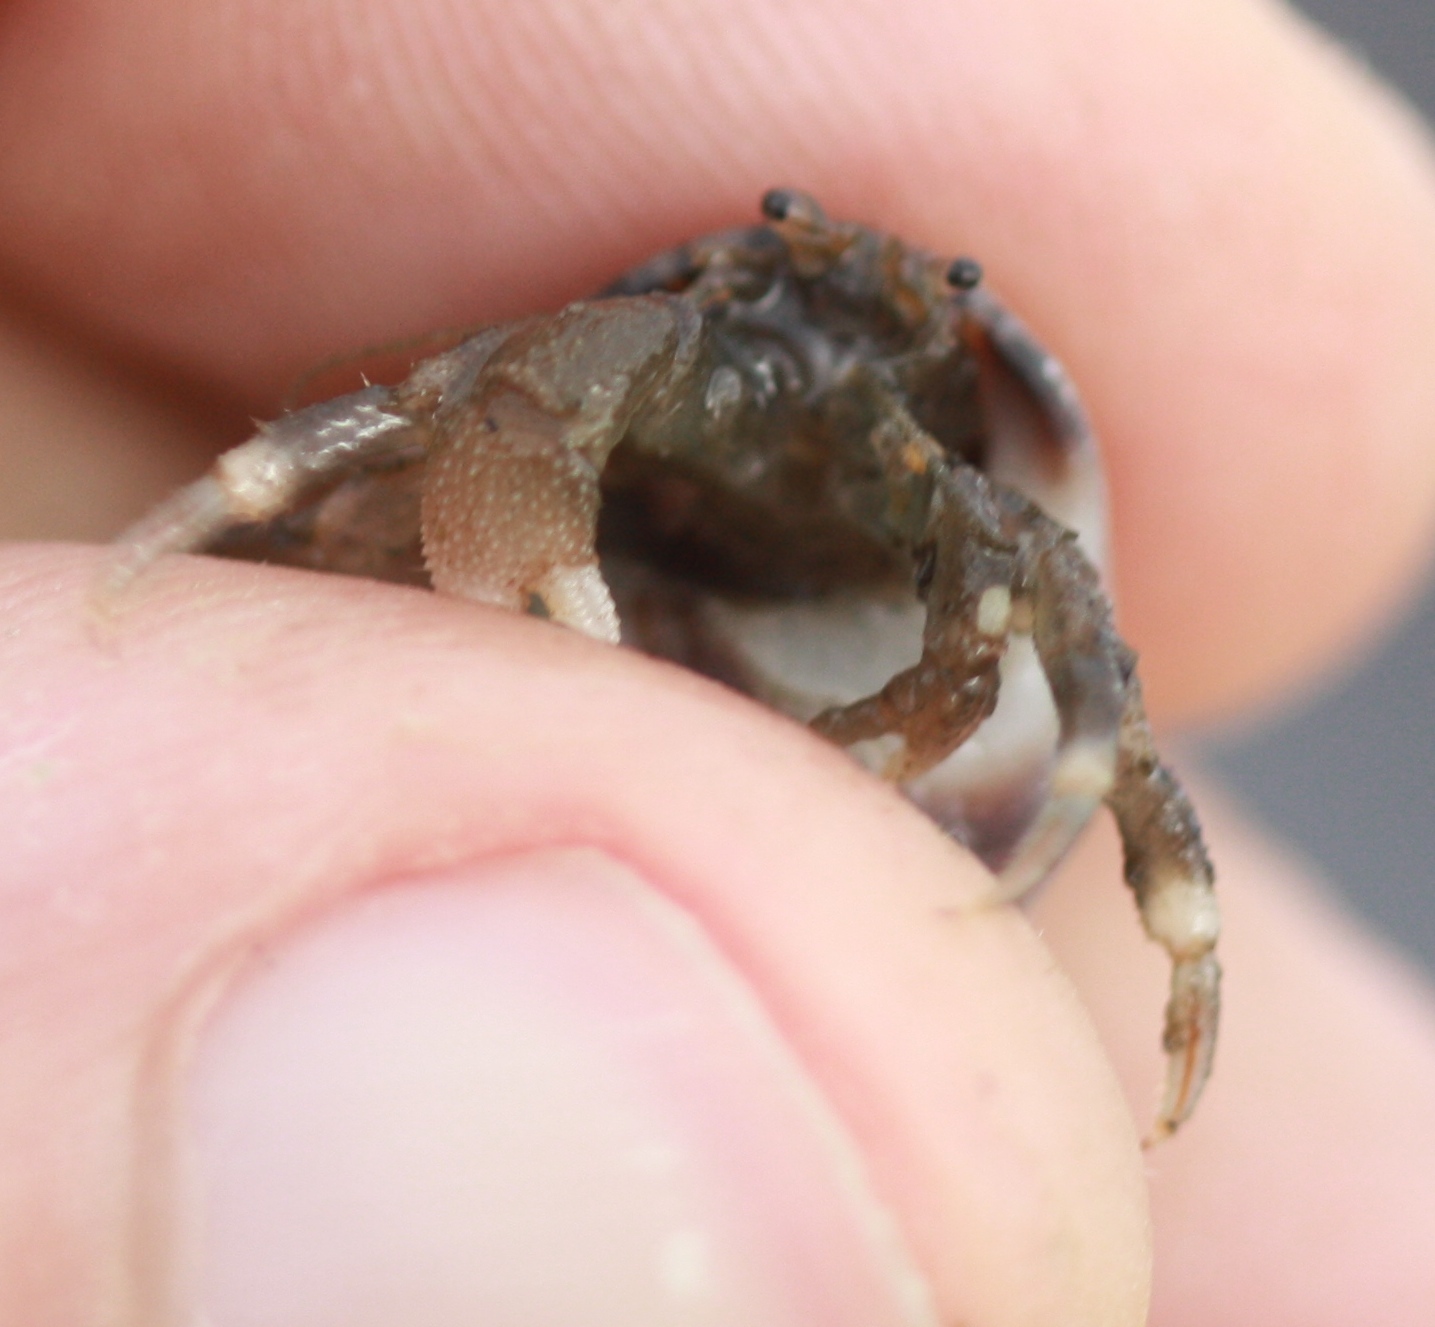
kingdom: Animalia
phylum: Arthropoda
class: Malacostraca
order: Decapoda
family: Paguridae
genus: Pagurus
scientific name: Pagurus hirsutiusculus
